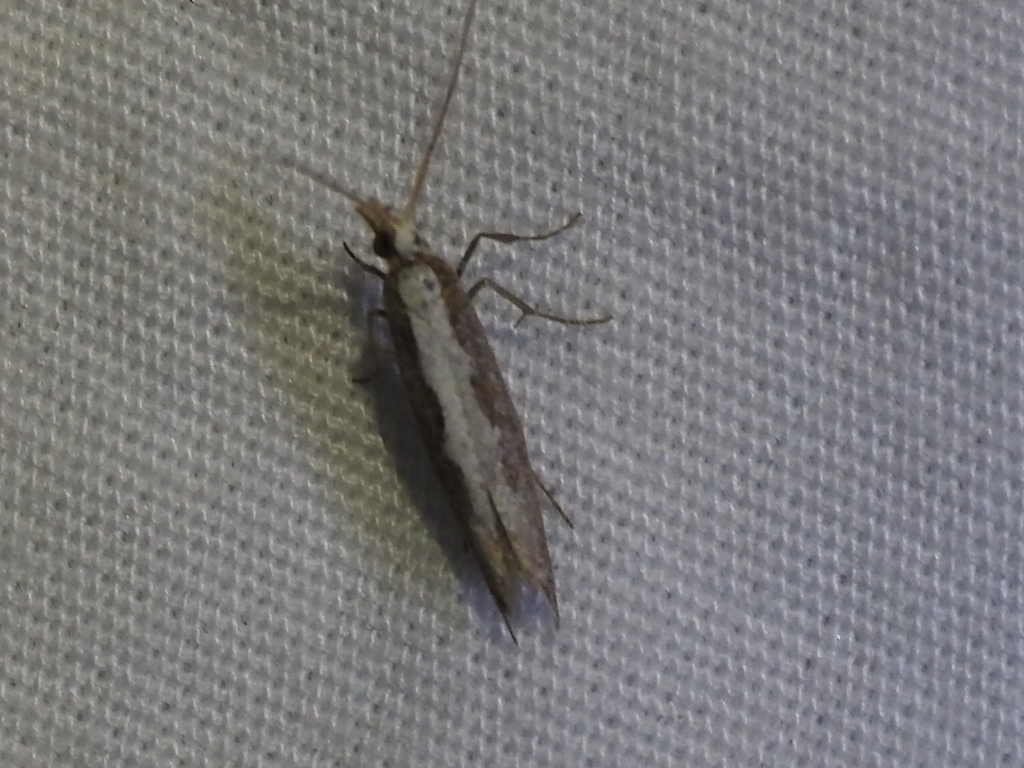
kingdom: Animalia
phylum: Arthropoda
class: Insecta
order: Lepidoptera
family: Plutellidae
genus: Plutella
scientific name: Plutella xylostella
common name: Diamond-back moth
